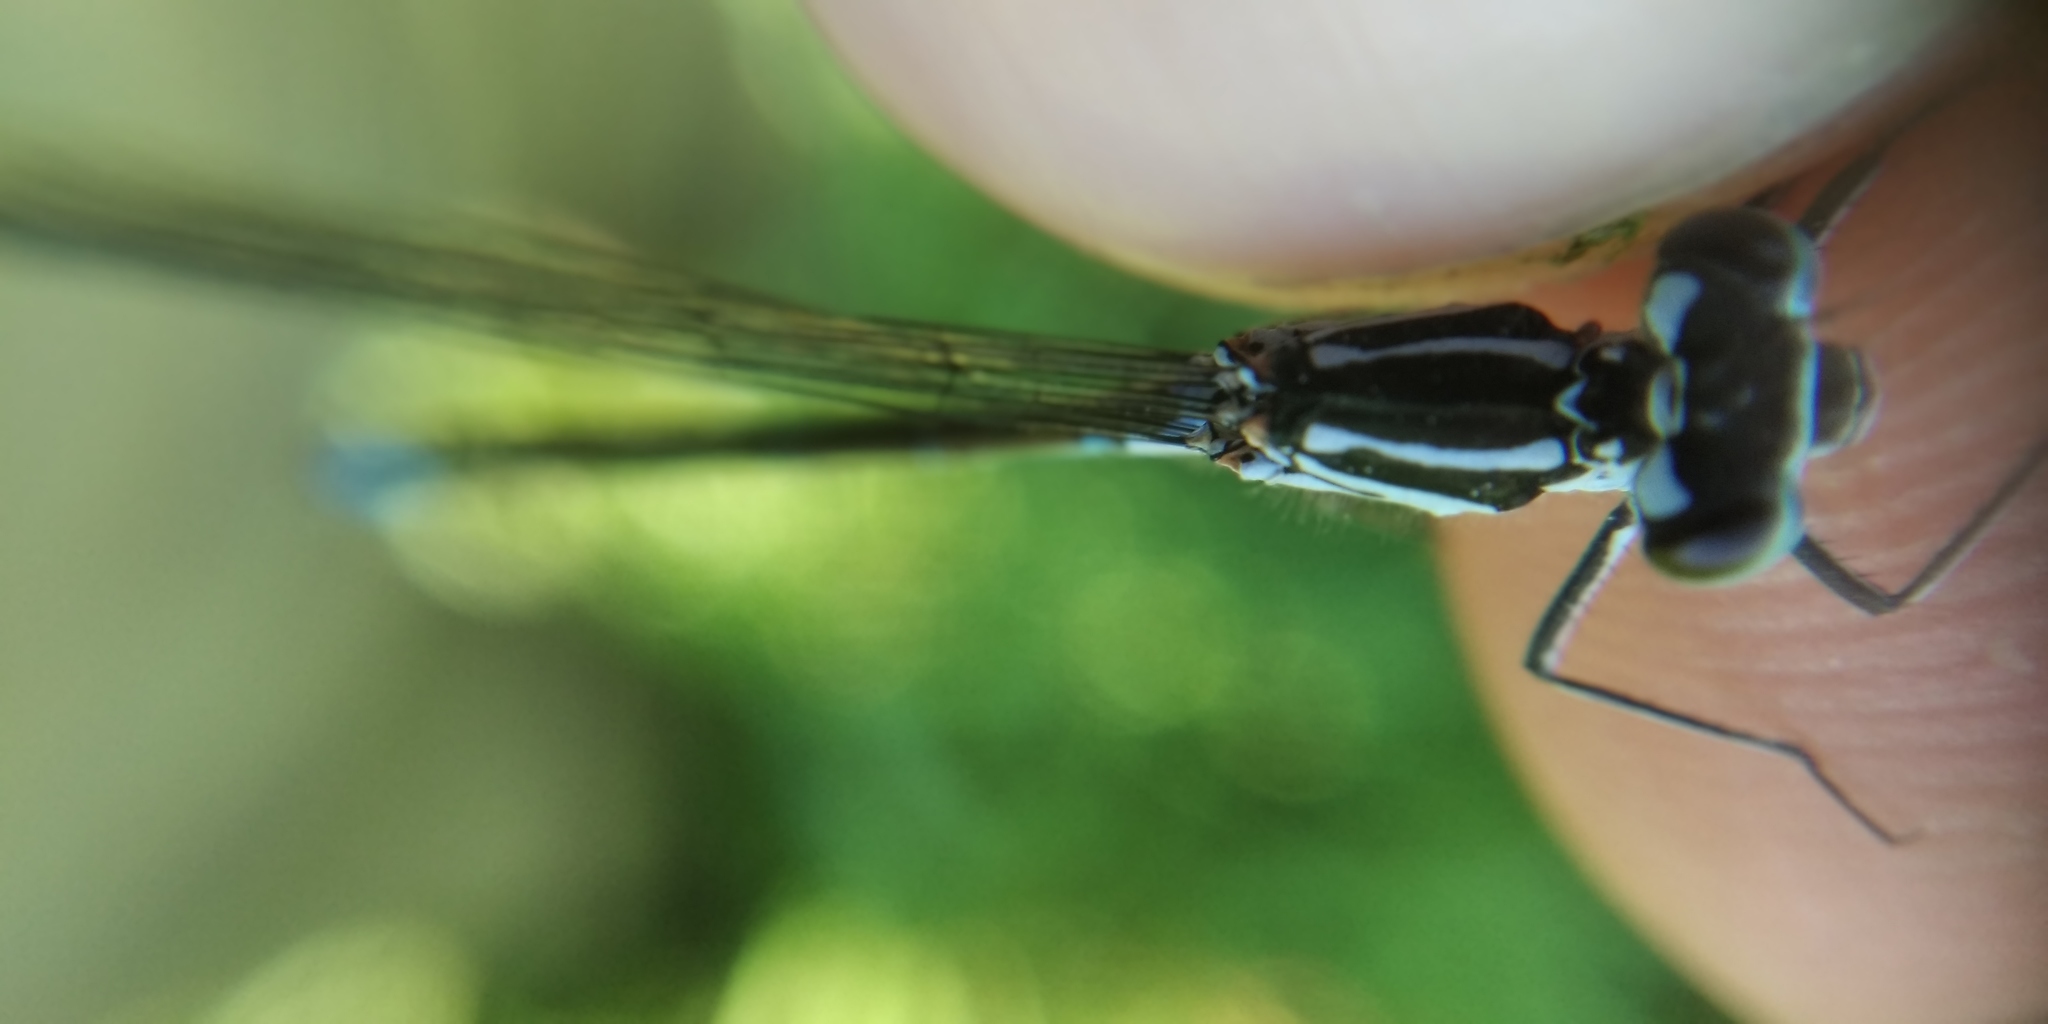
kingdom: Animalia
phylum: Arthropoda
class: Insecta
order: Odonata
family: Coenagrionidae
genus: Coenagrion
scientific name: Coenagrion pulchellum
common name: Variable bluet
